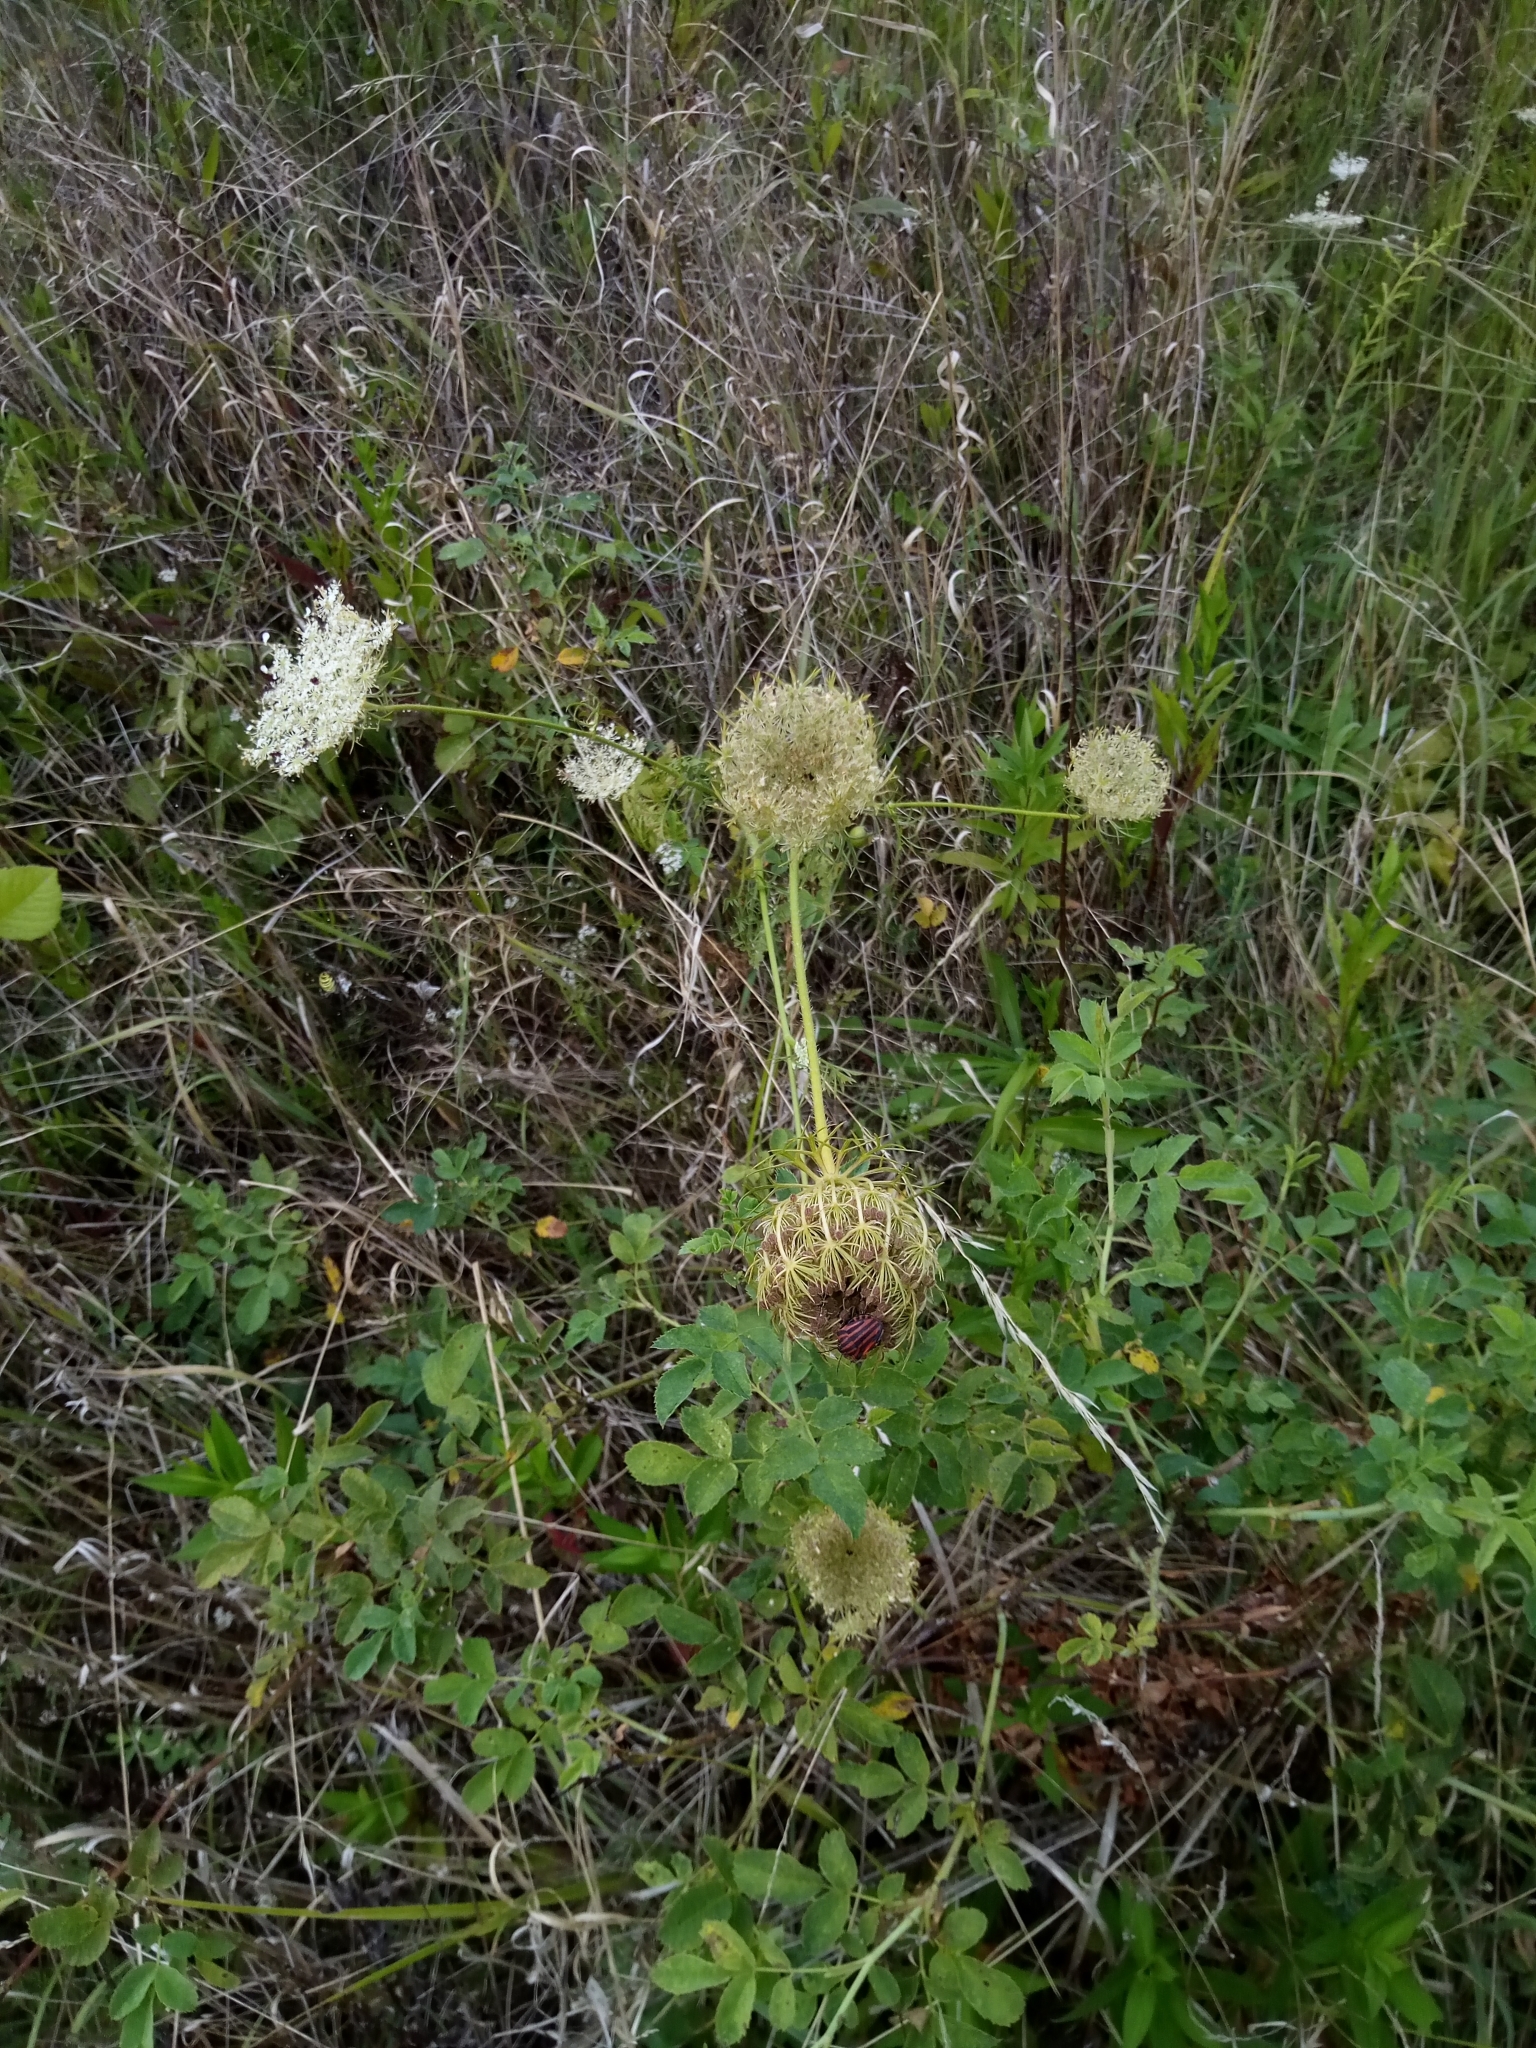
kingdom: Plantae
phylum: Tracheophyta
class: Magnoliopsida
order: Apiales
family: Apiaceae
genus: Daucus
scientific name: Daucus carota
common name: Wild carrot
